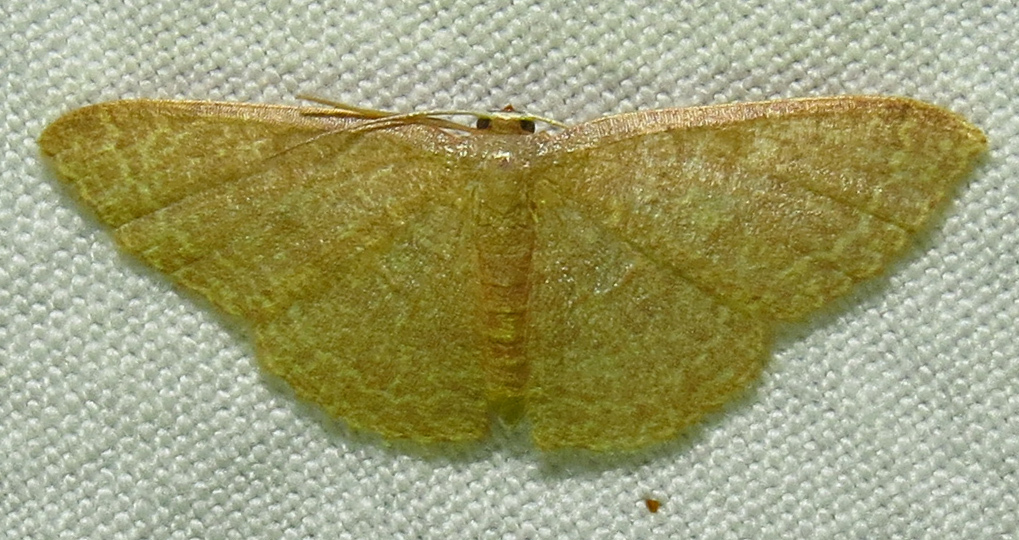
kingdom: Animalia
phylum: Arthropoda
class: Insecta
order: Lepidoptera
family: Geometridae
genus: Pleuroprucha
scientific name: Pleuroprucha insulsaria
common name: Common tan wave
